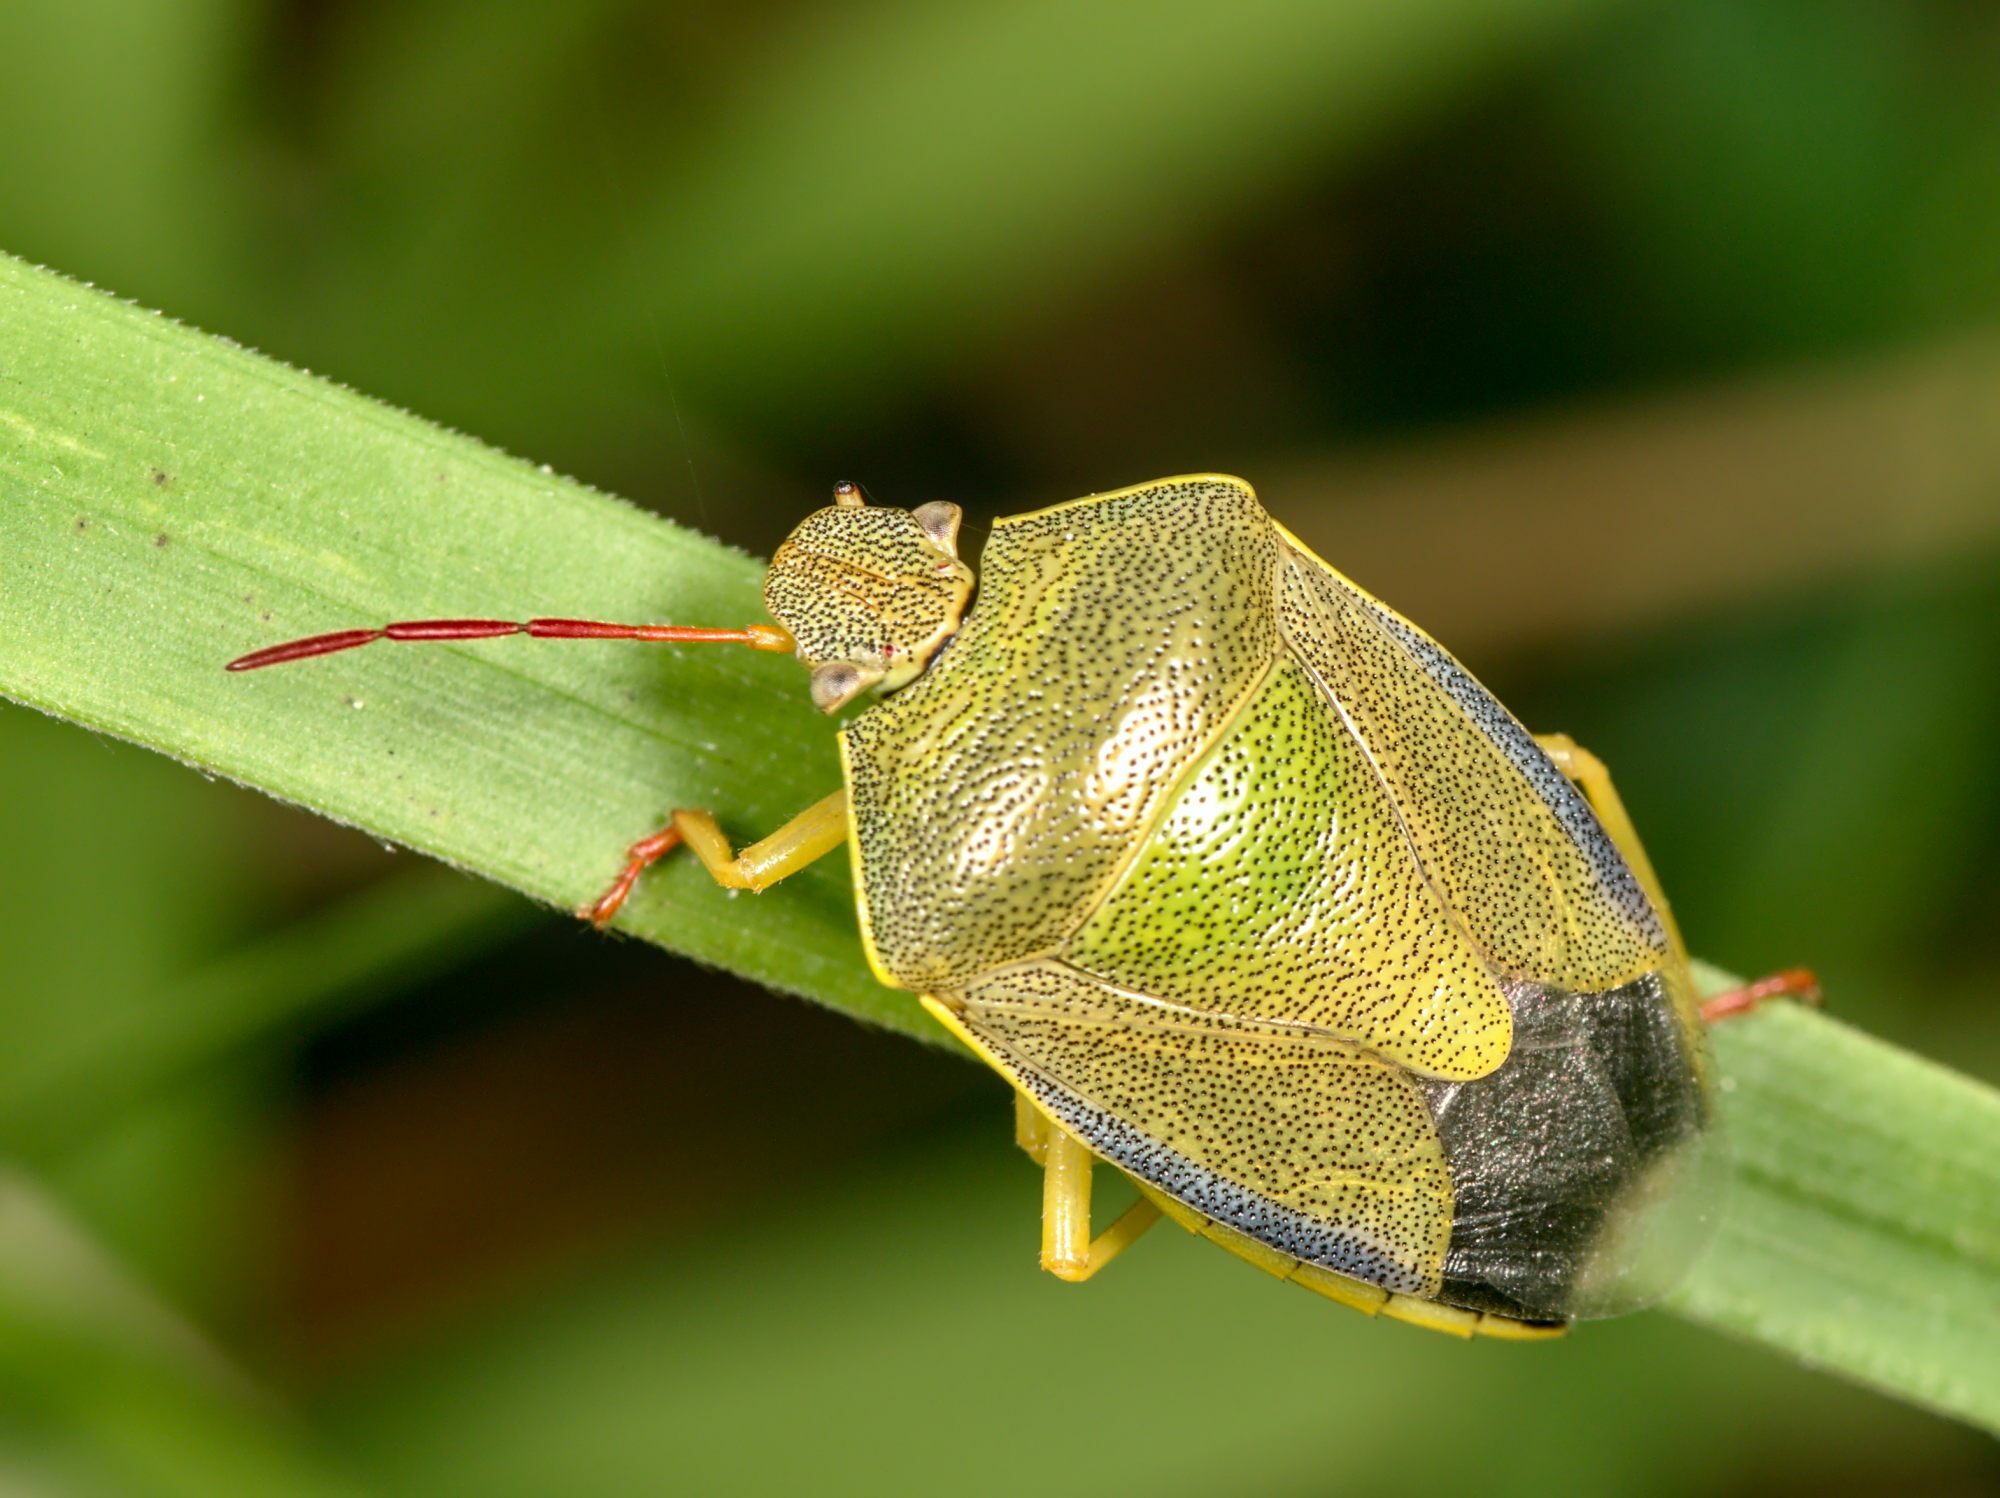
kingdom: Animalia
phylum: Arthropoda
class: Insecta
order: Hemiptera
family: Pentatomidae
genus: Piezodorus
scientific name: Piezodorus lituratus
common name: Stink bug
